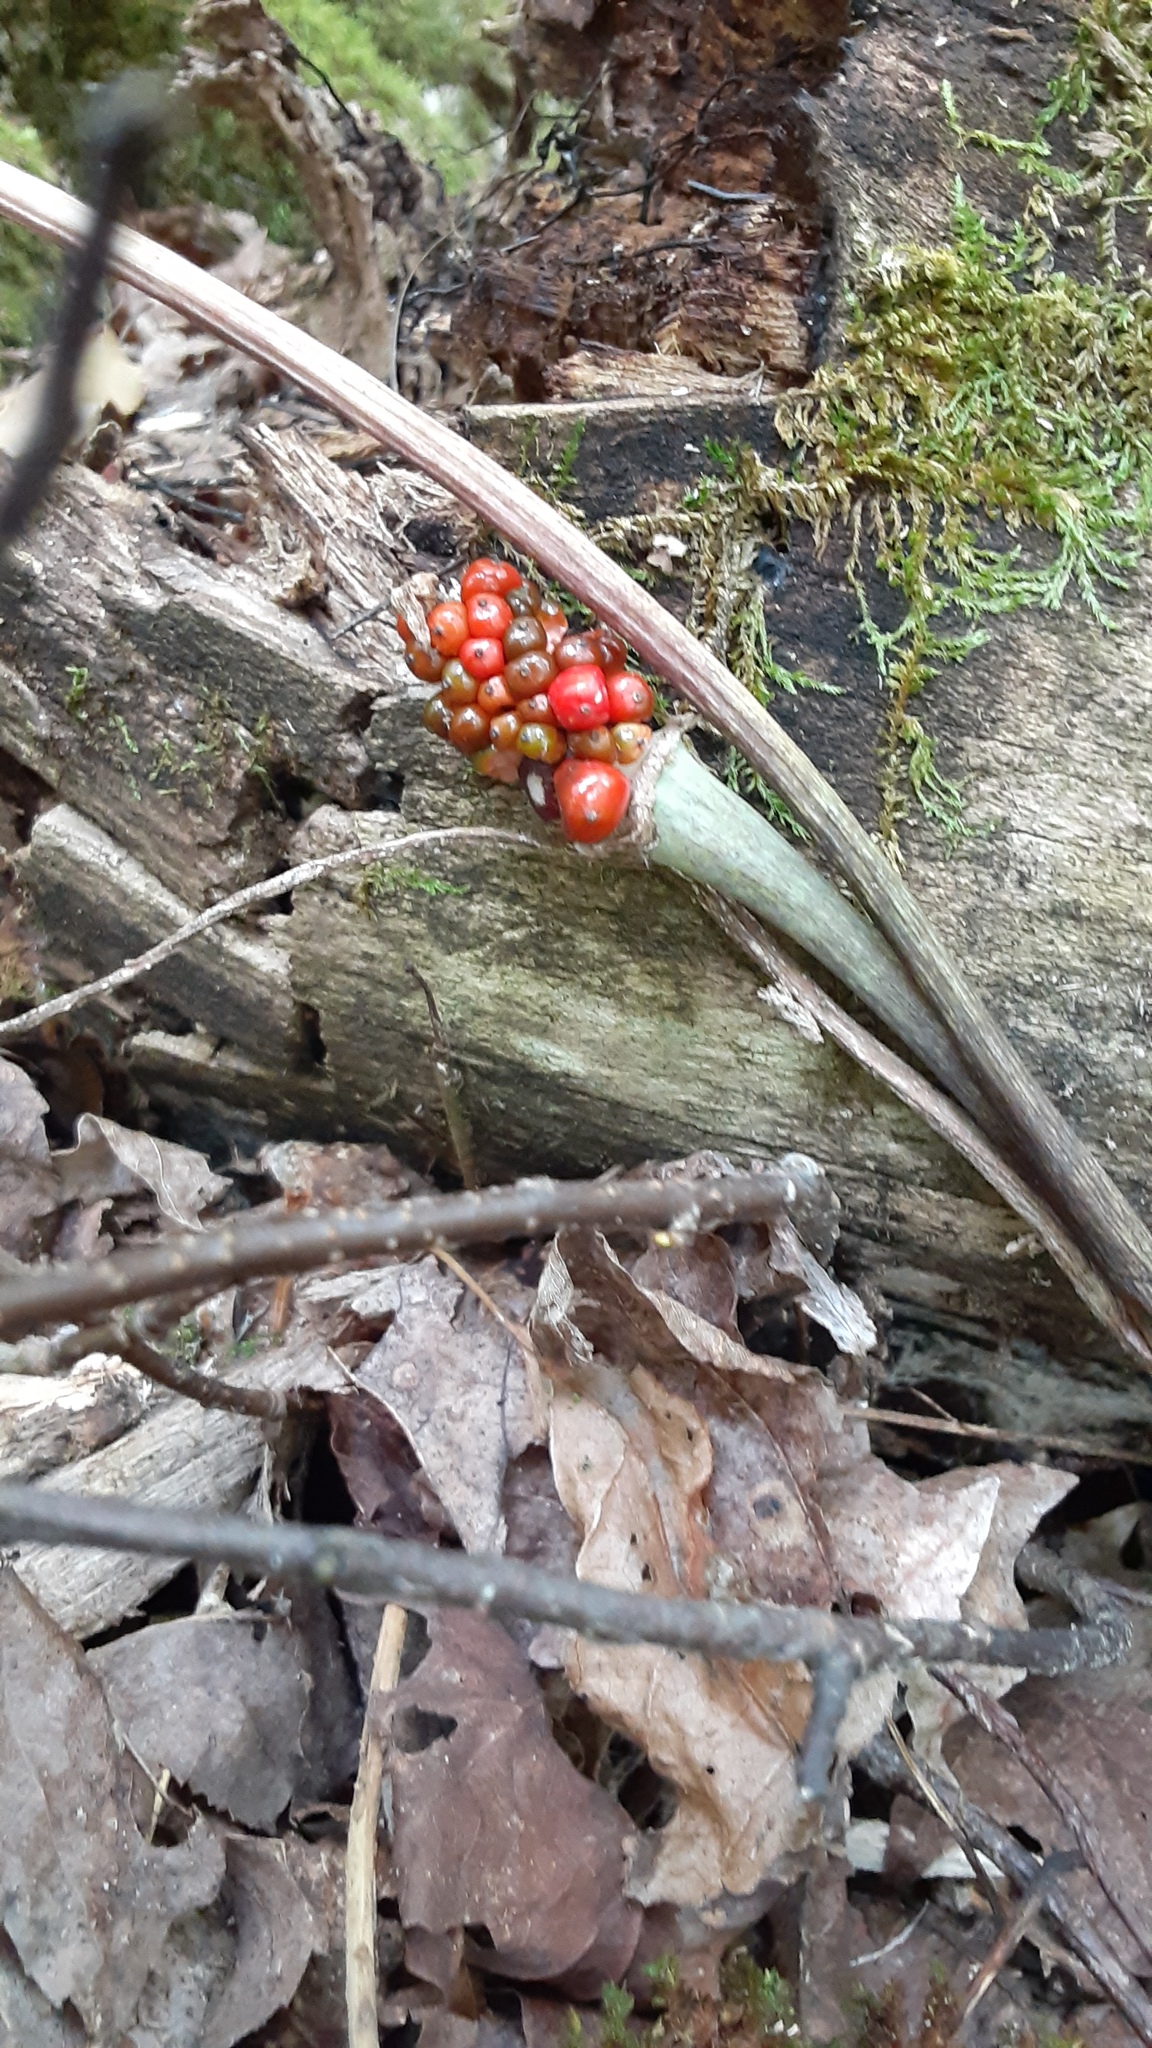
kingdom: Plantae
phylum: Tracheophyta
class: Liliopsida
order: Alismatales
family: Araceae
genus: Arisaema
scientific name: Arisaema triphyllum
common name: Jack-in-the-pulpit
